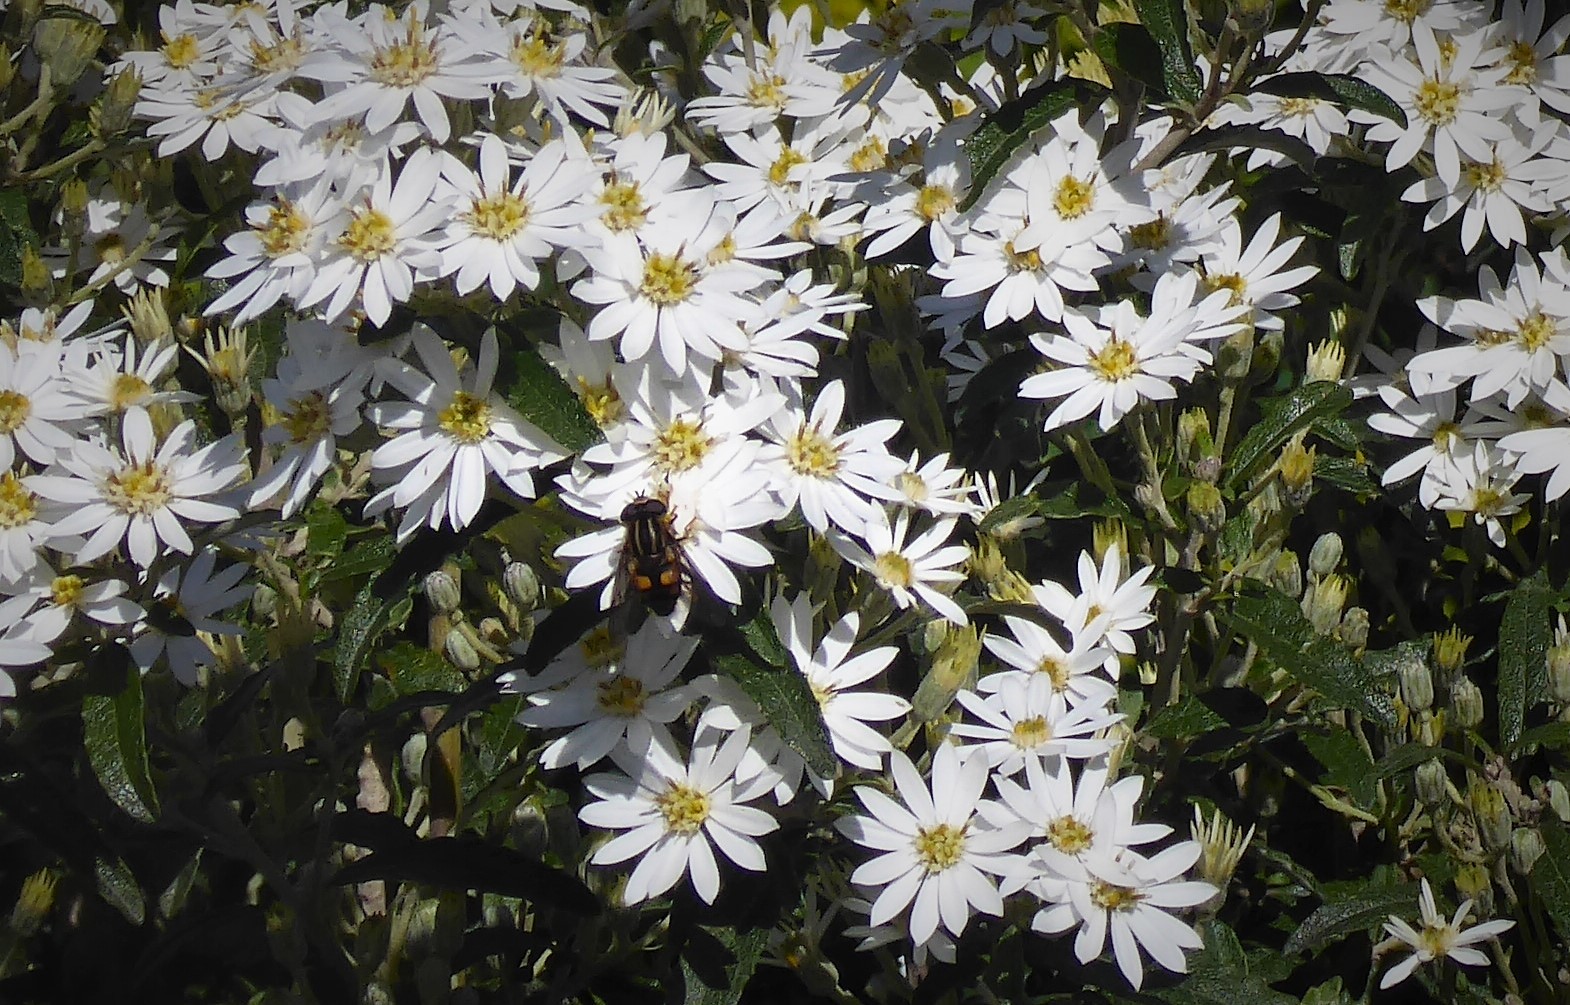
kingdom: Animalia
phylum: Arthropoda
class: Insecta
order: Diptera
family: Syrphidae
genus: Helophilus
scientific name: Helophilus antipodus
